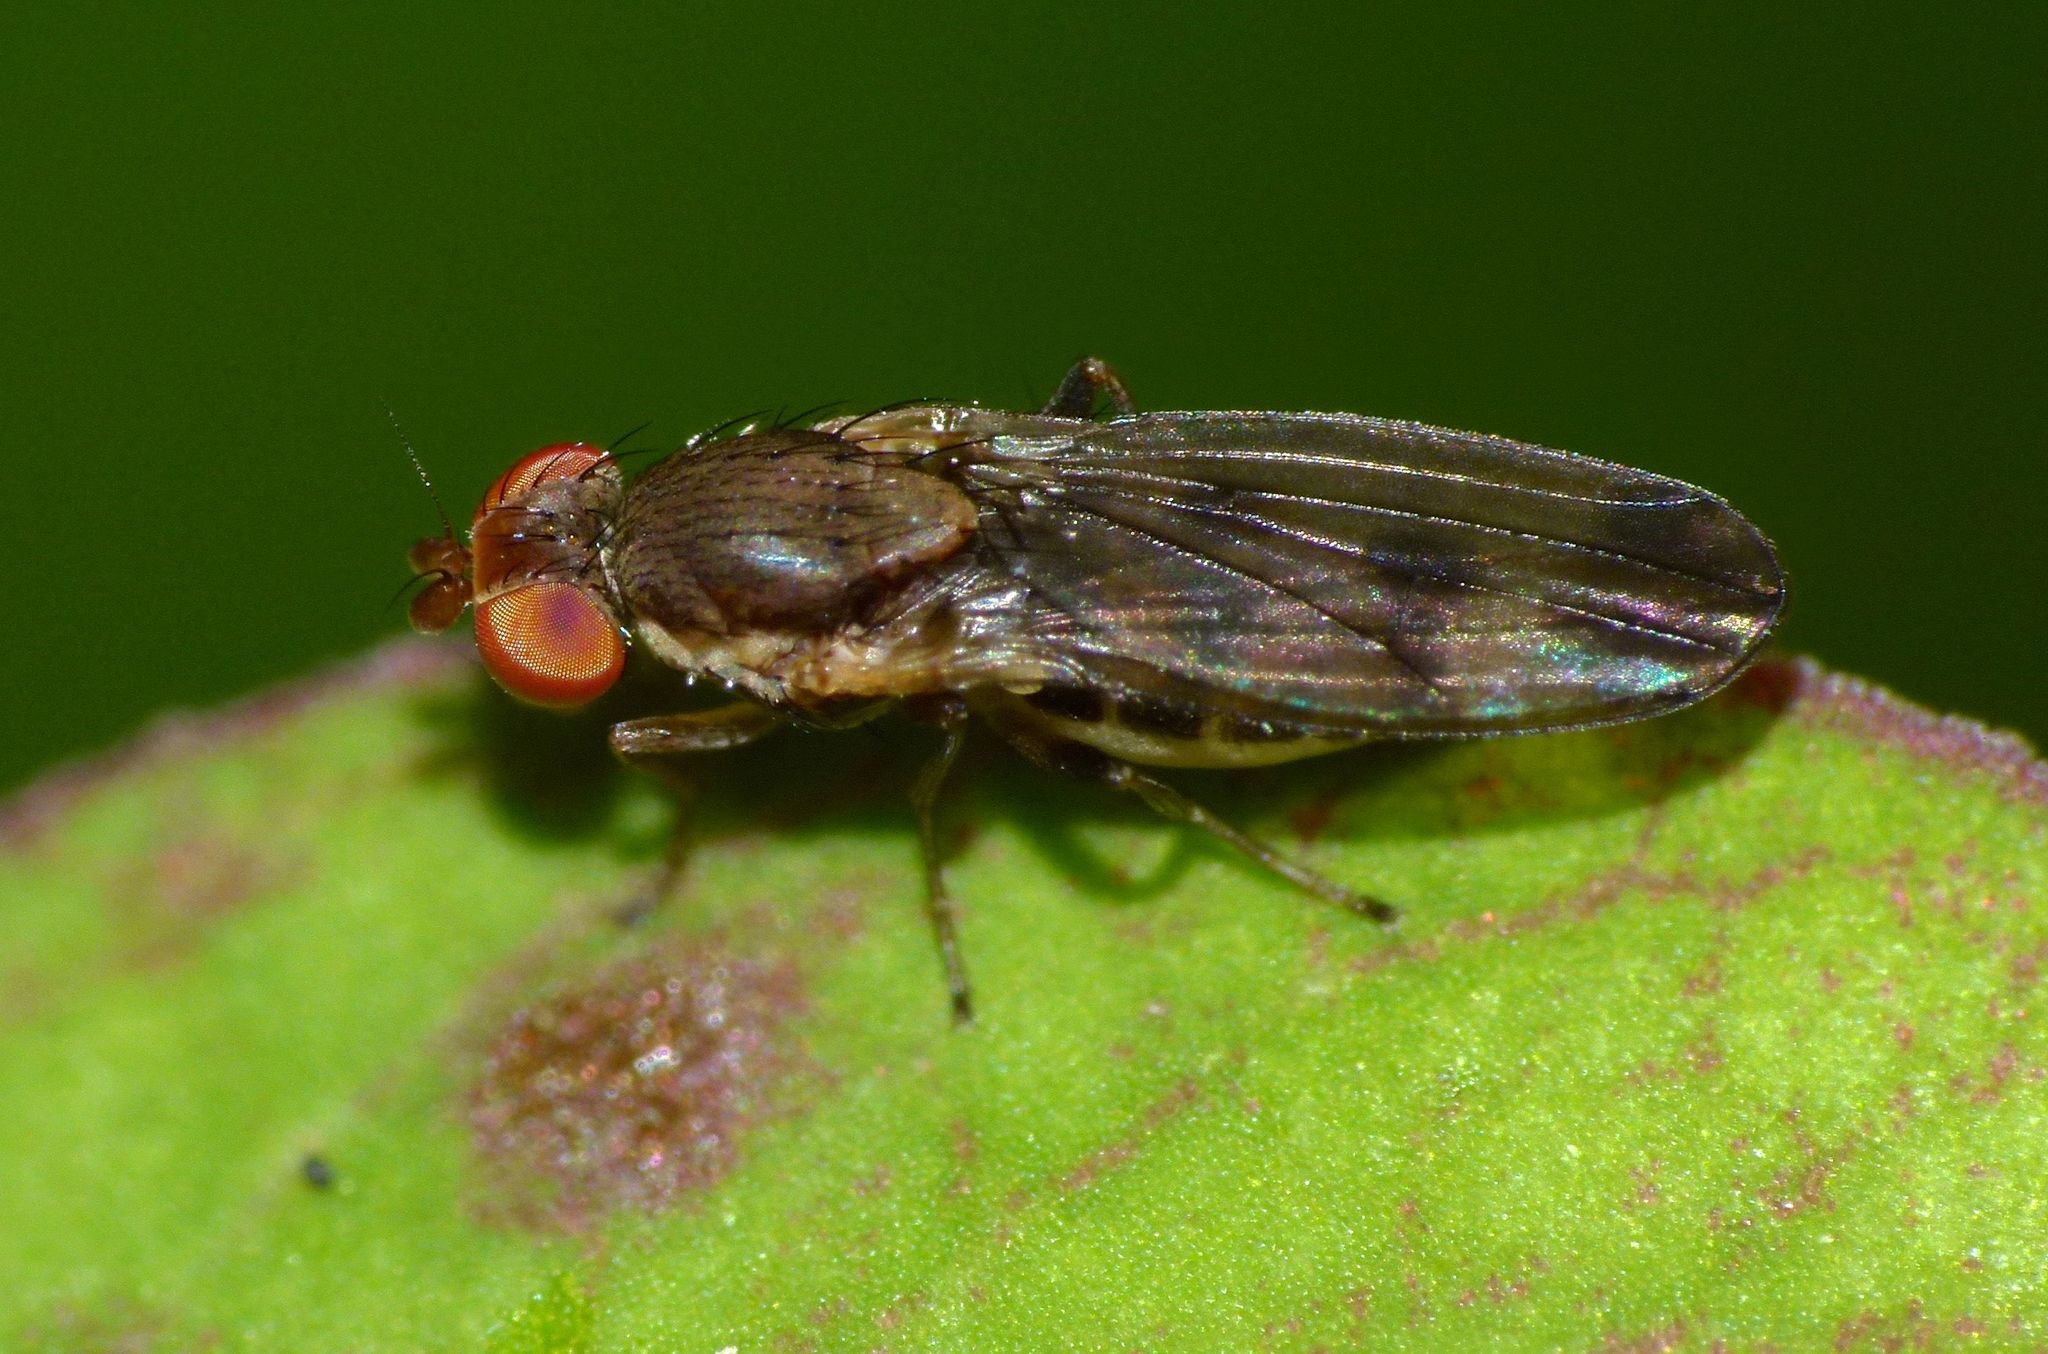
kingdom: Animalia
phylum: Arthropoda
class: Insecta
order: Diptera
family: Heleomyzidae
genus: Fenwickia
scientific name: Fenwickia hirsuta
